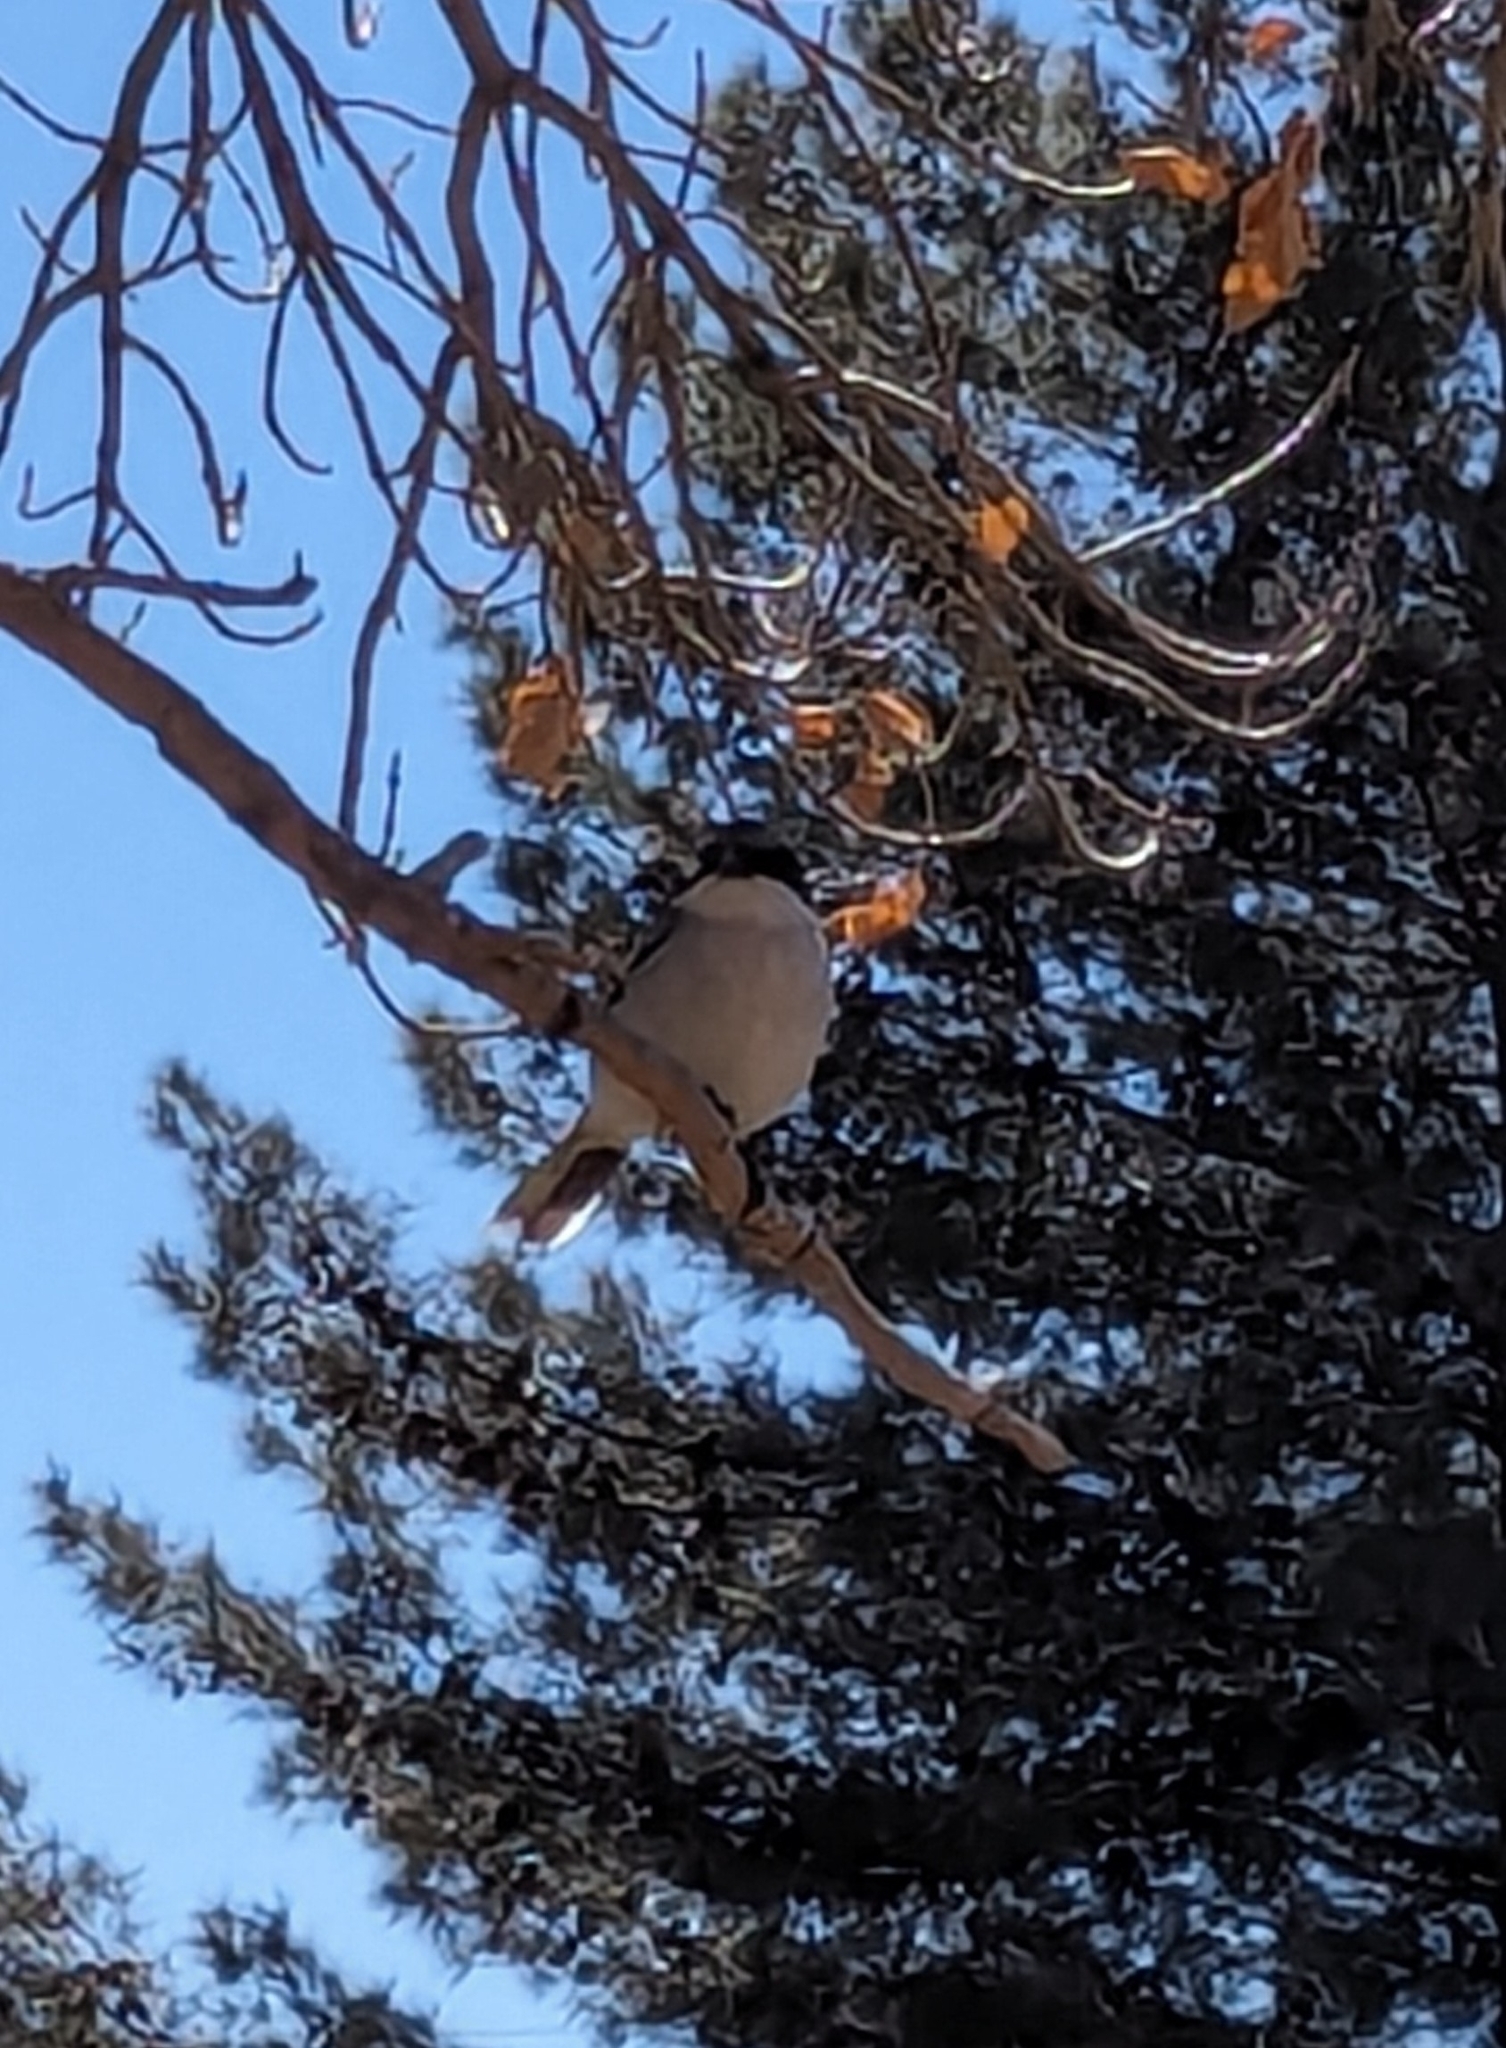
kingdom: Animalia
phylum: Chordata
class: Aves
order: Passeriformes
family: Laniidae
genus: Lanius
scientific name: Lanius ludovicianus
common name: Loggerhead shrike
